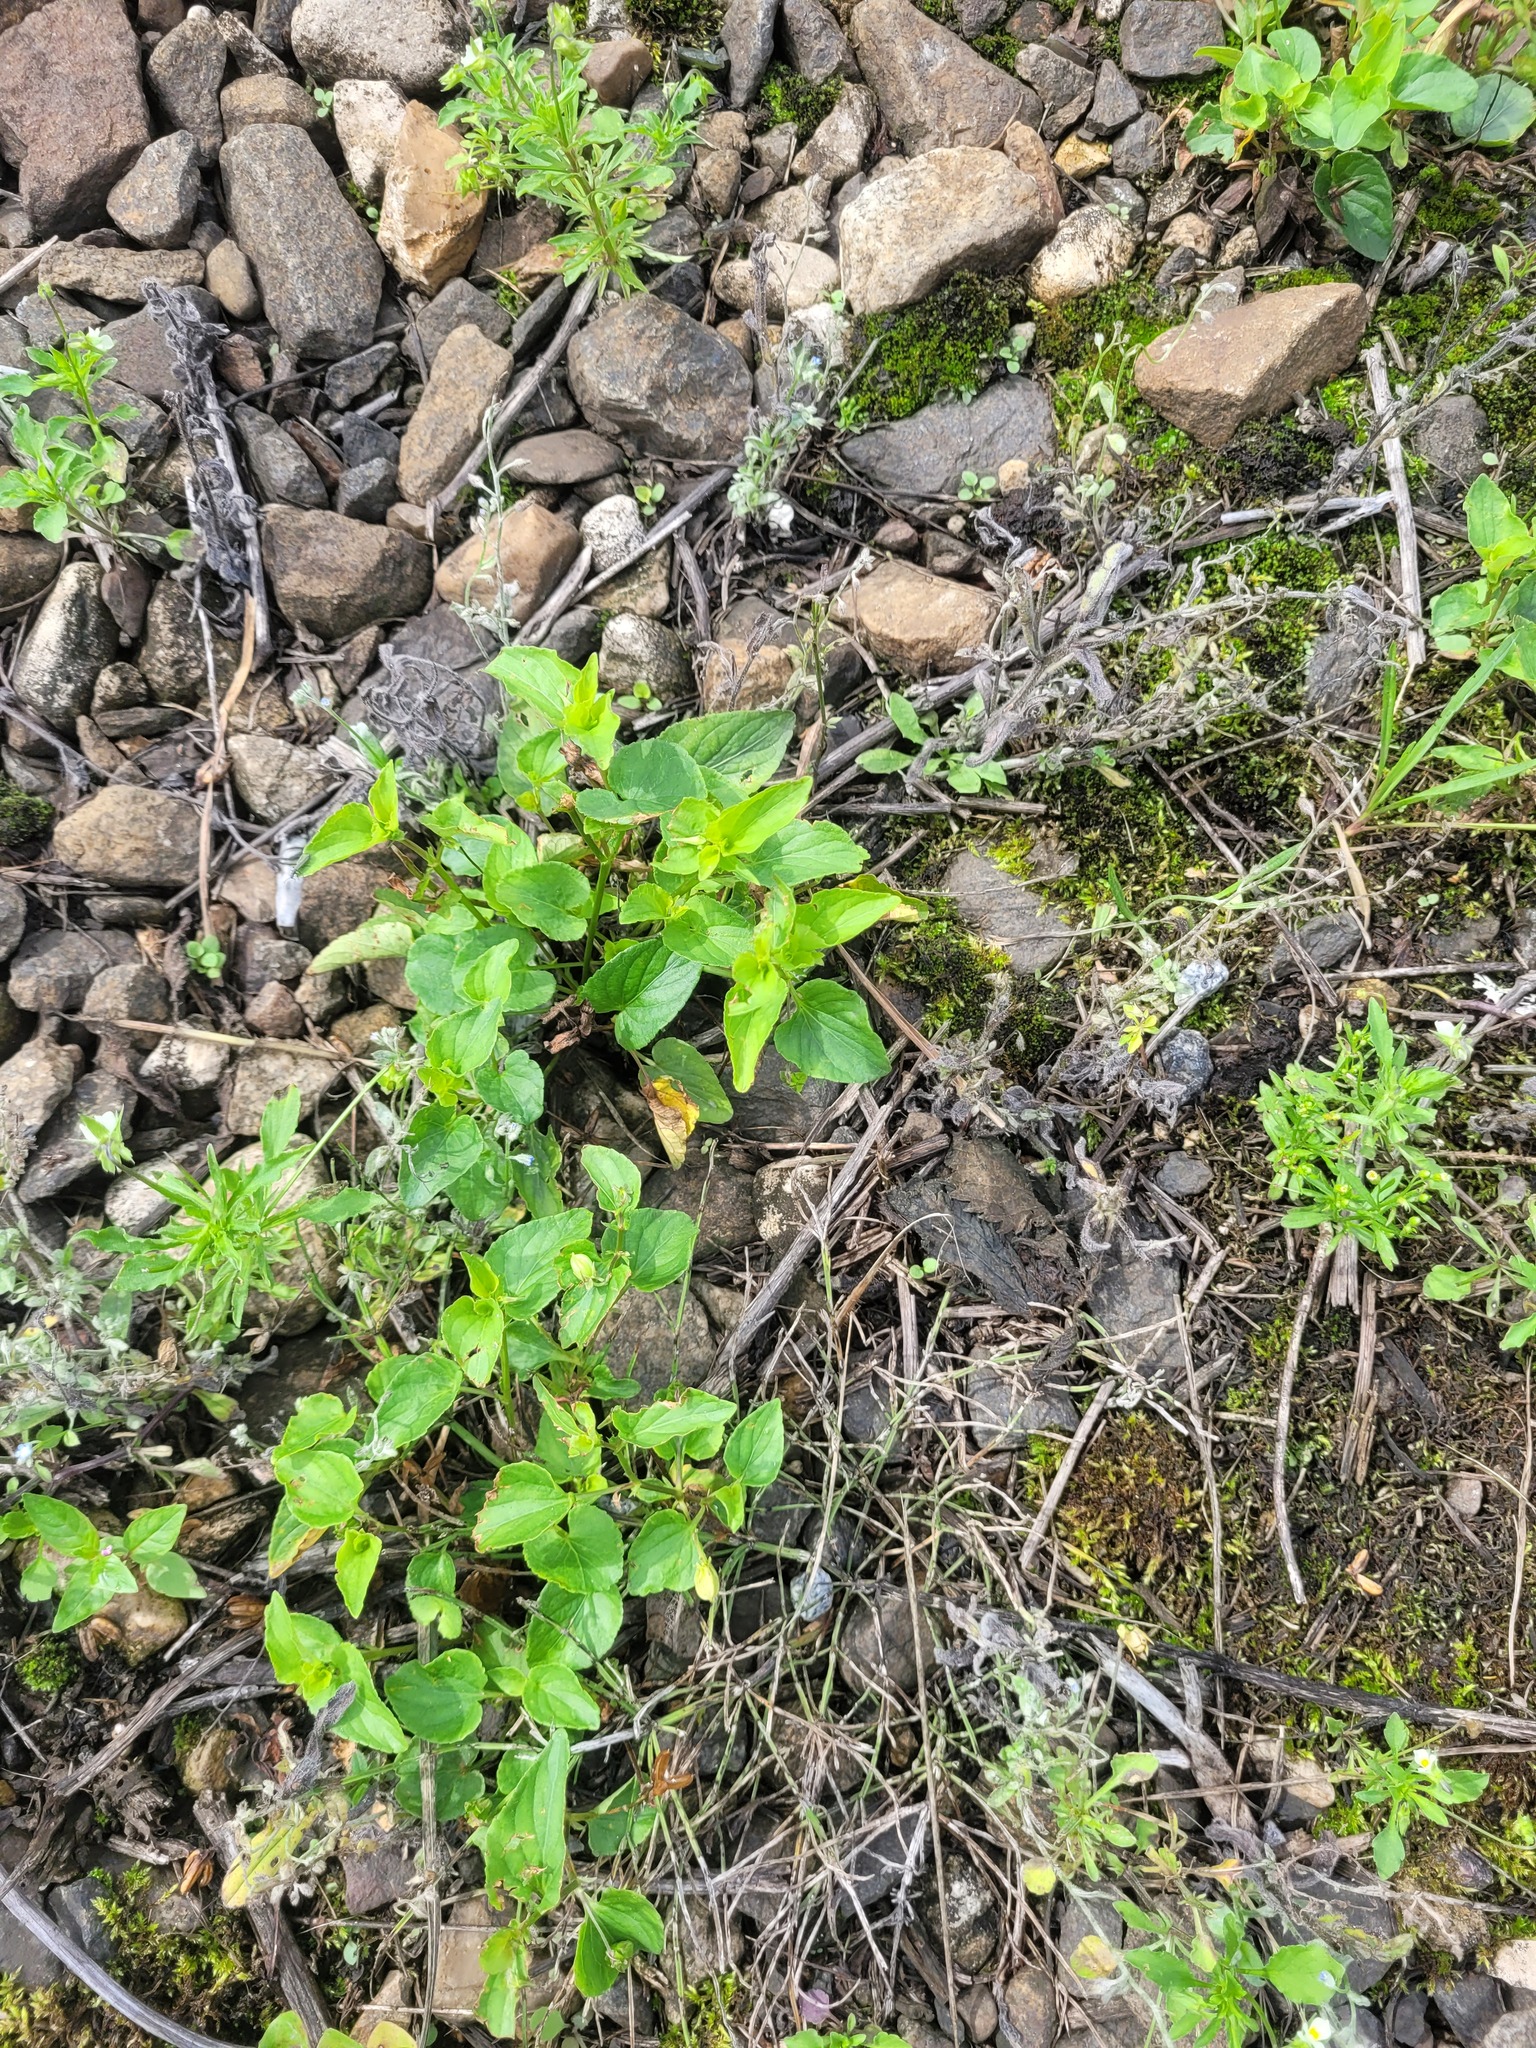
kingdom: Plantae
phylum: Tracheophyta
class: Magnoliopsida
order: Malpighiales
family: Violaceae
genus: Viola
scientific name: Viola canina
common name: Heath dog-violet
